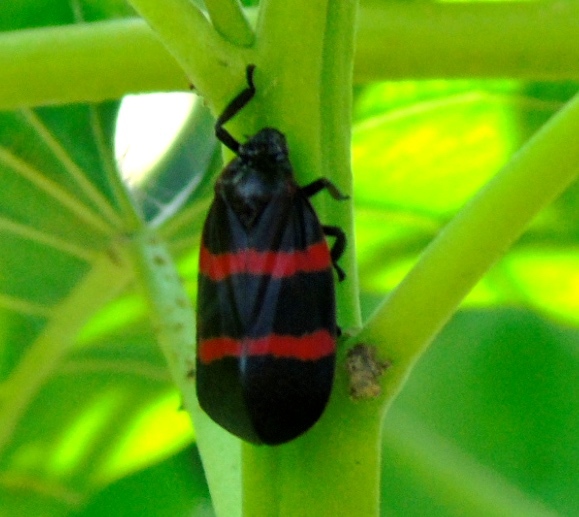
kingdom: Animalia
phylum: Arthropoda
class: Insecta
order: Hemiptera
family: Cercopidae
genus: Huaina
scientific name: Huaina inca
